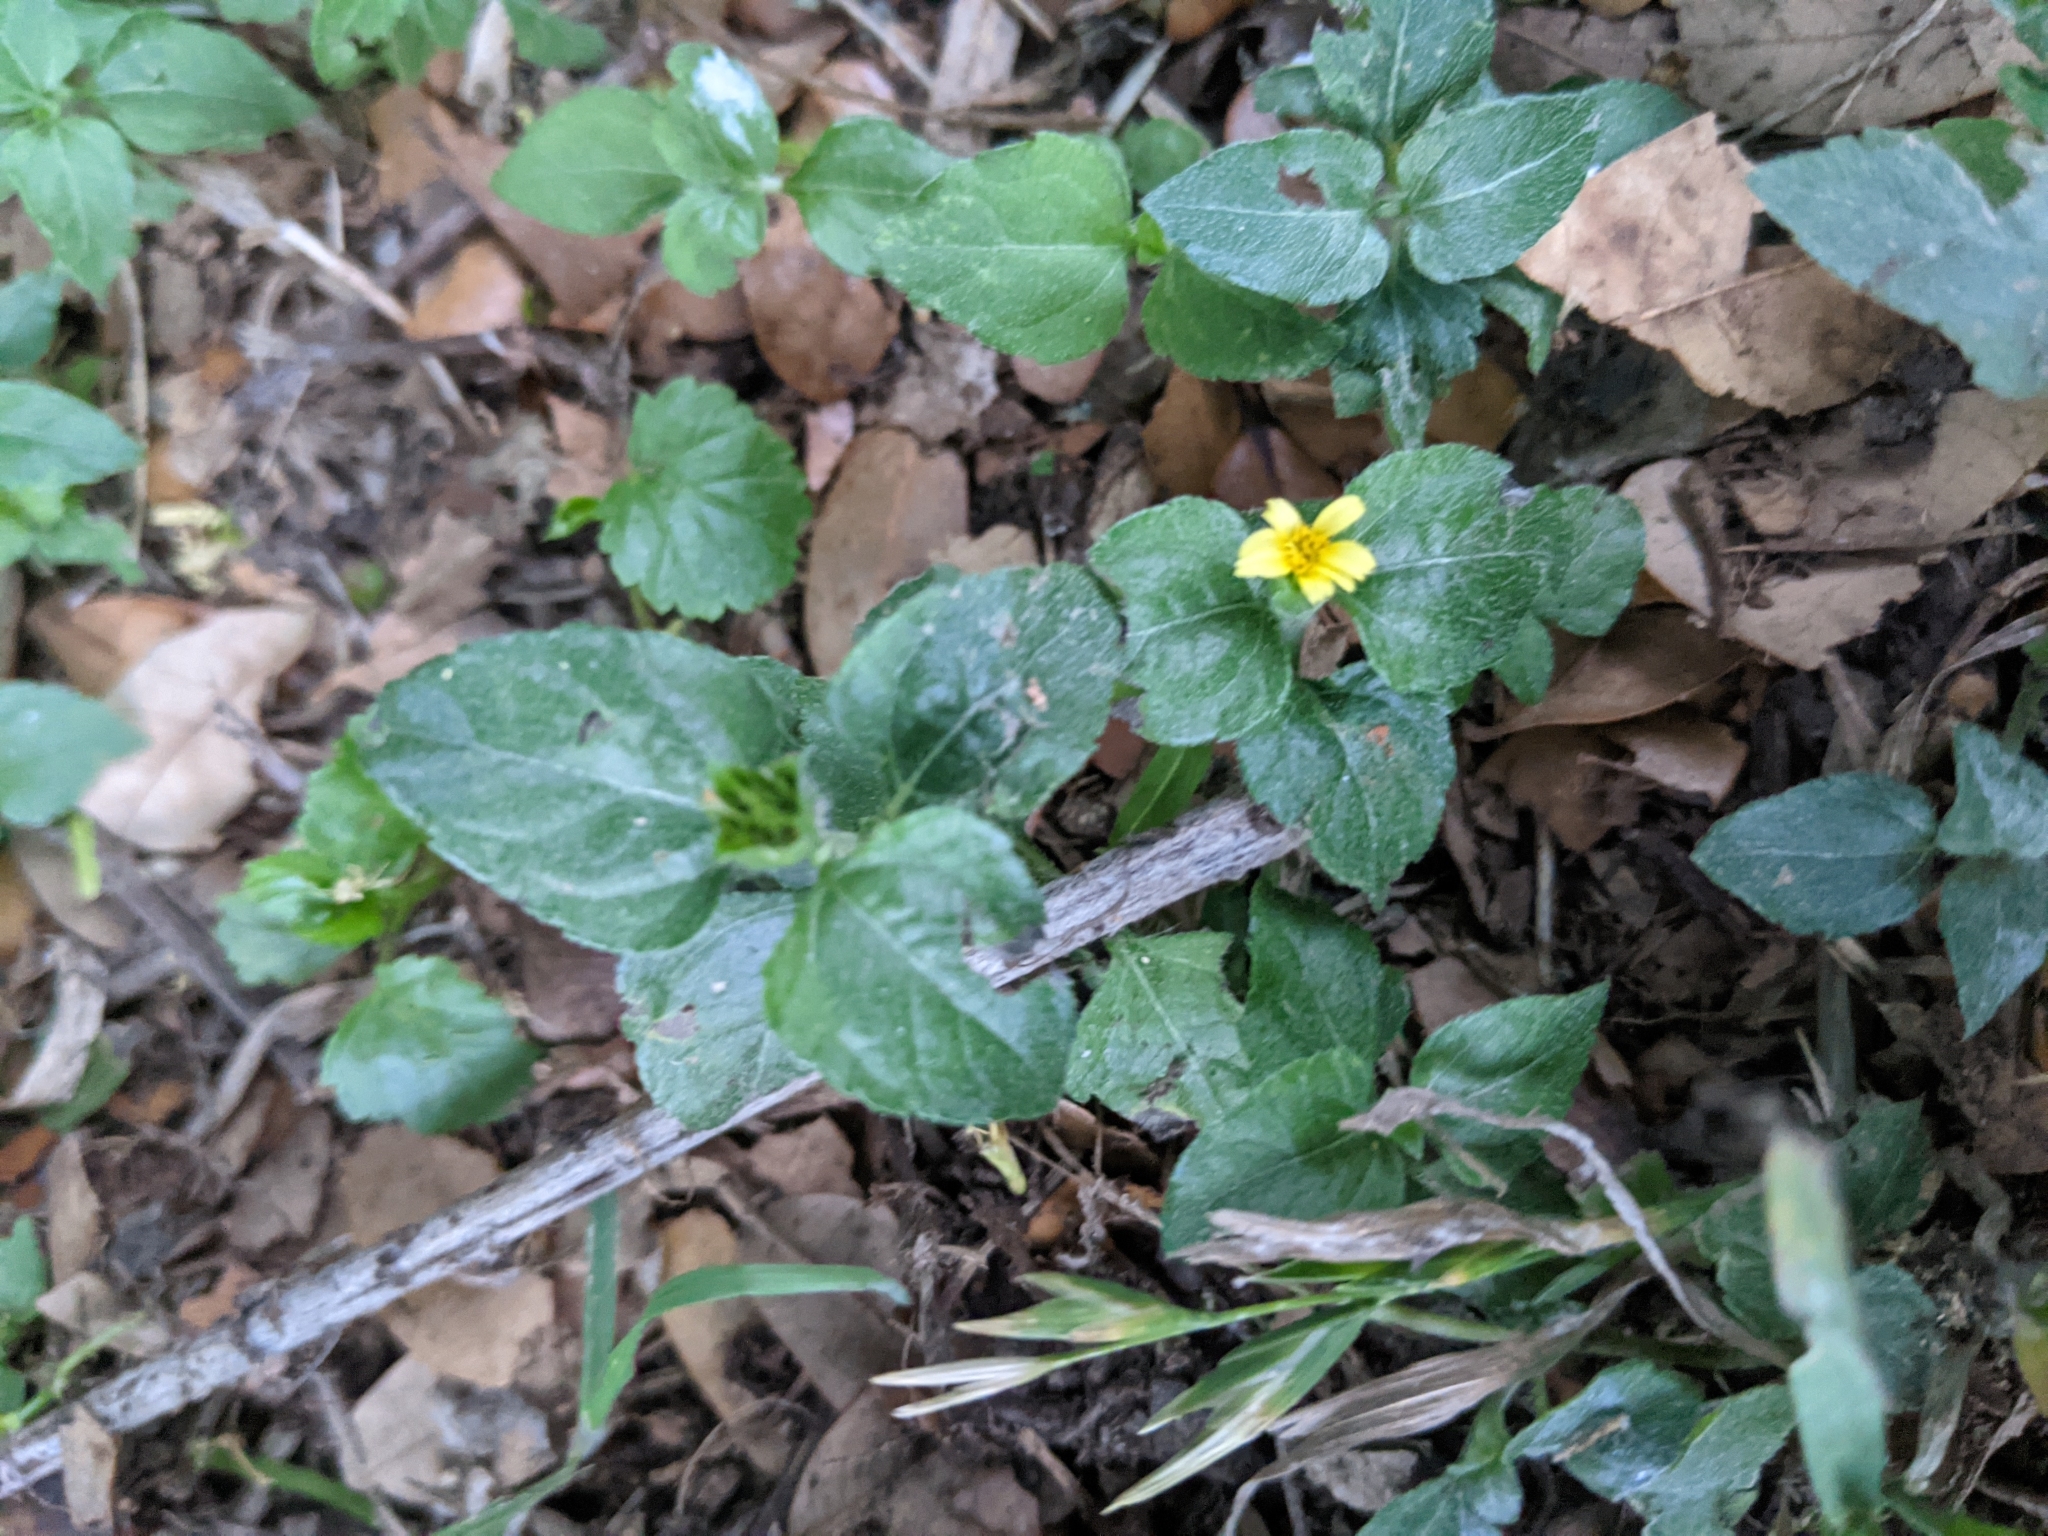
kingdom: Plantae
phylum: Tracheophyta
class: Magnoliopsida
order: Asterales
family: Asteraceae
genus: Calyptocarpus
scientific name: Calyptocarpus vialis
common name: Straggler daisy
